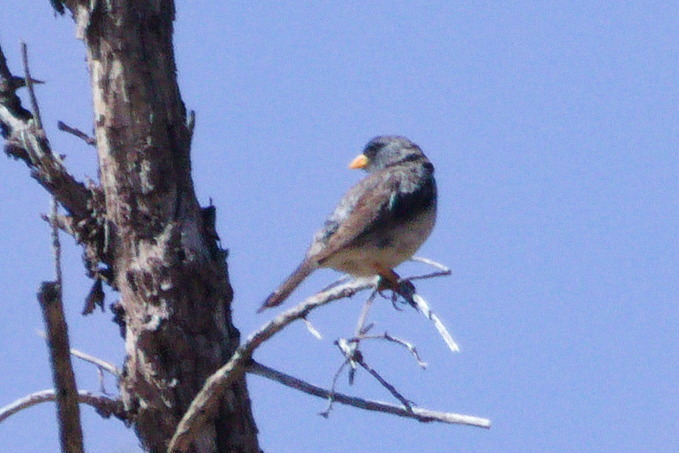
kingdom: Animalia
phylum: Chordata
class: Aves
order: Passeriformes
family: Thraupidae
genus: Porphyrospiza
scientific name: Porphyrospiza alaudina
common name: Band-tailed sierra finch
